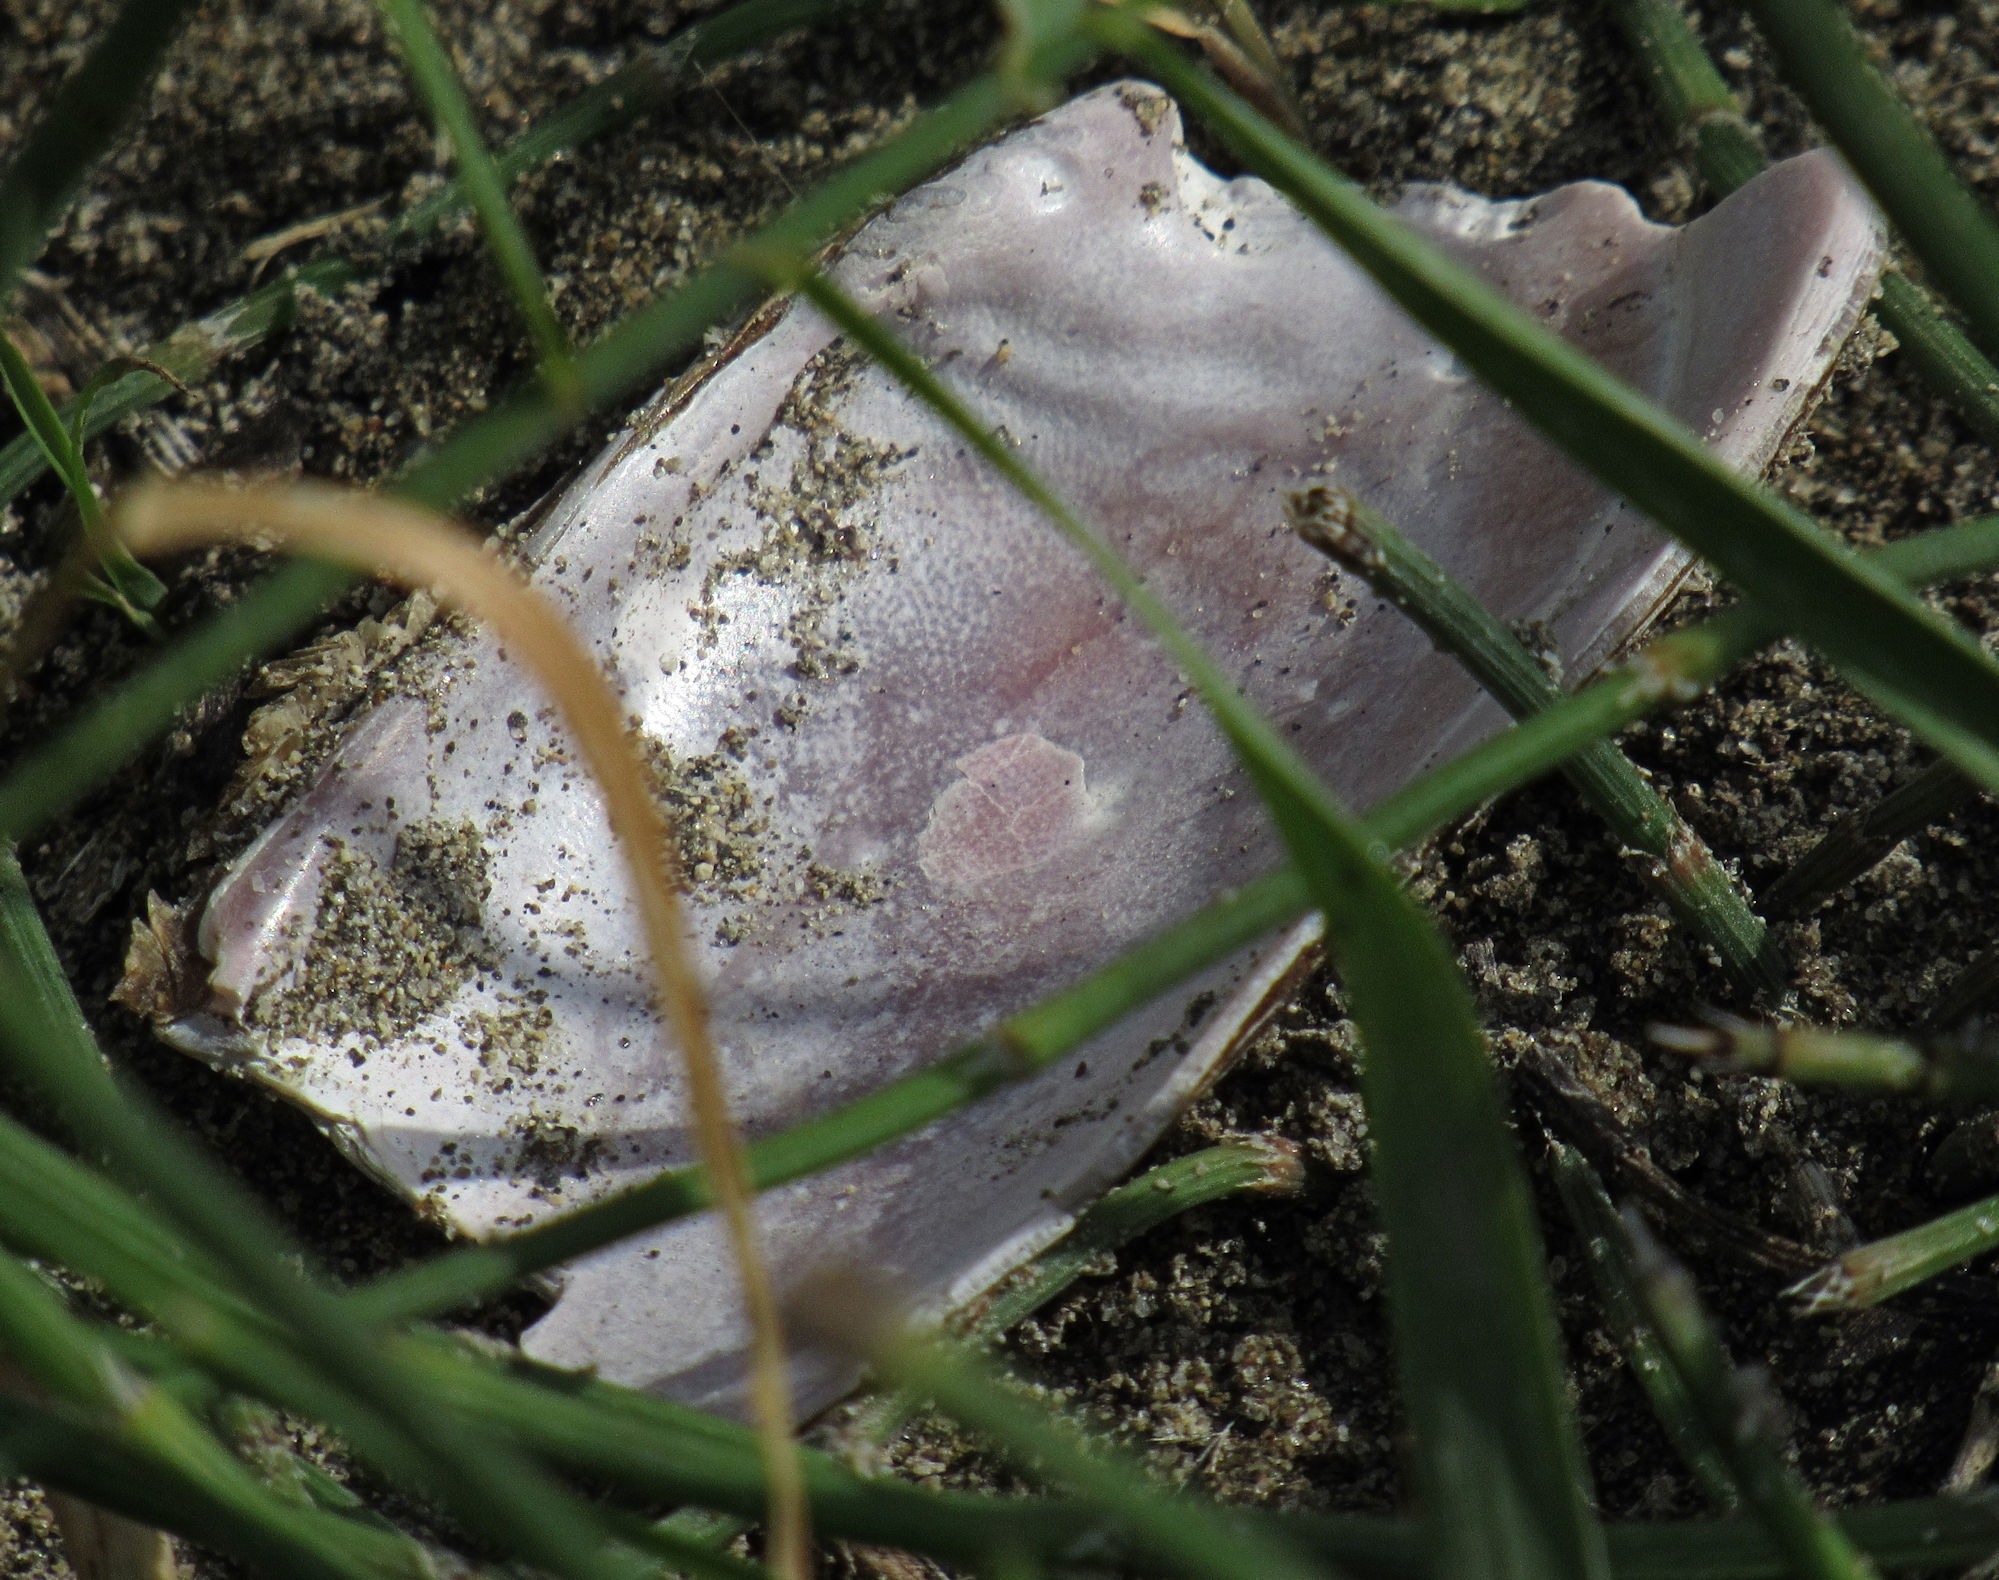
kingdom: Animalia
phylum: Mollusca
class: Bivalvia
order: Unionida
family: Margaritiferidae
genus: Margaritifera
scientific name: Margaritifera falcata
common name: Western pearlshell
